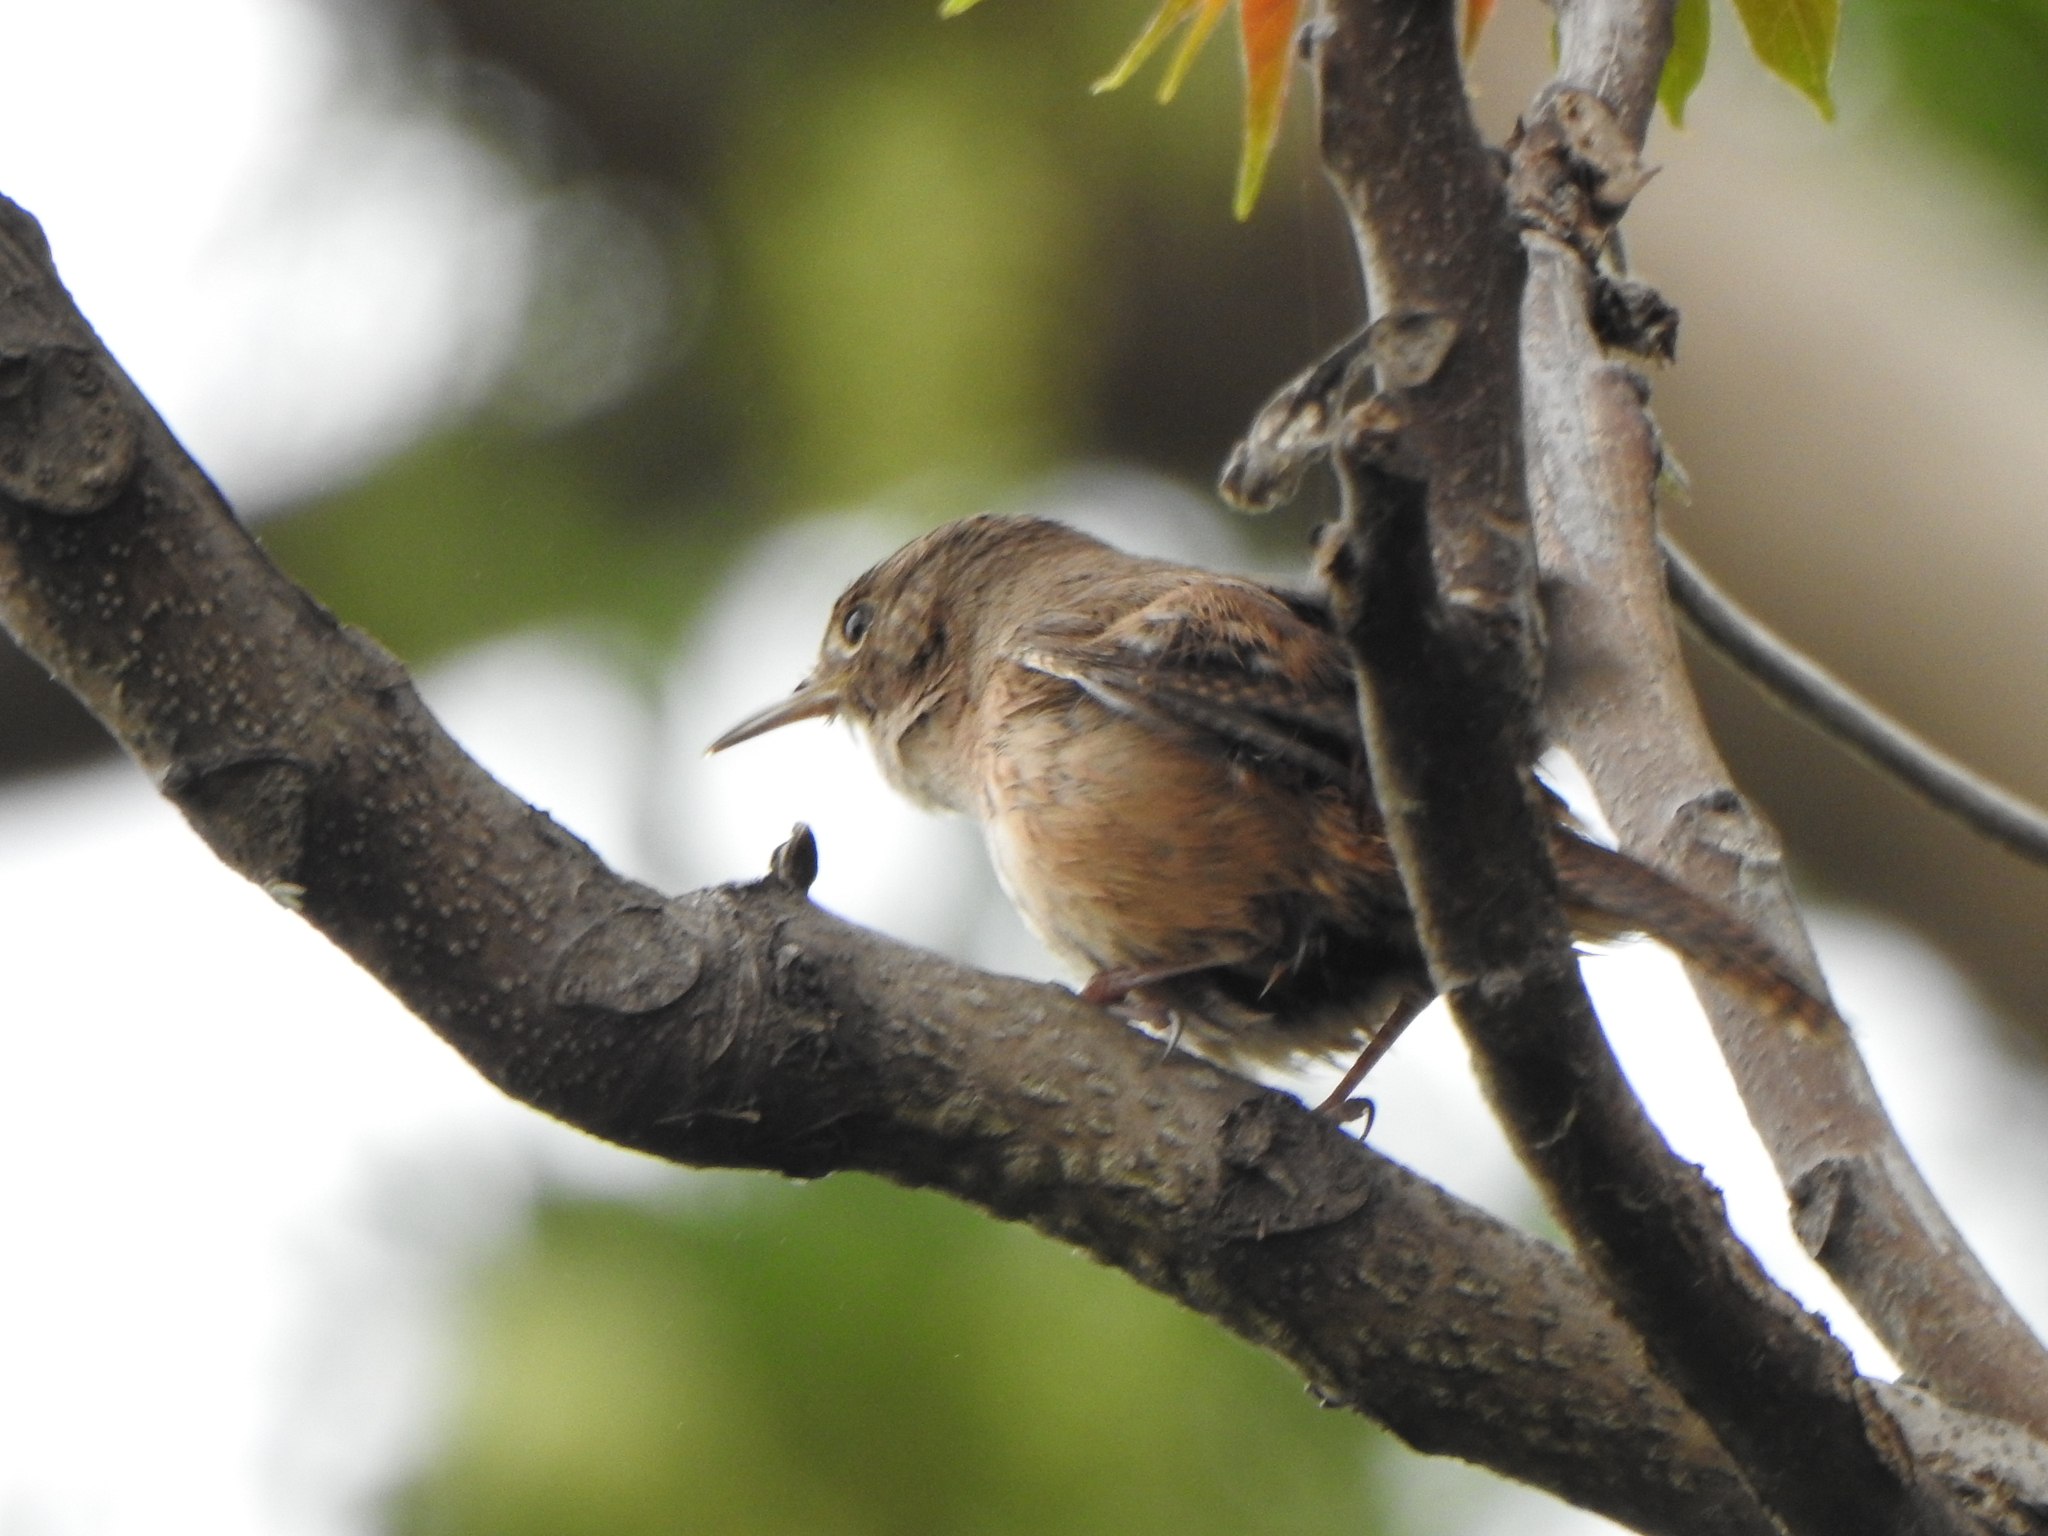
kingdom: Animalia
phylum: Chordata
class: Aves
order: Passeriformes
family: Troglodytidae
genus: Troglodytes
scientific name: Troglodytes aedon
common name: House wren
